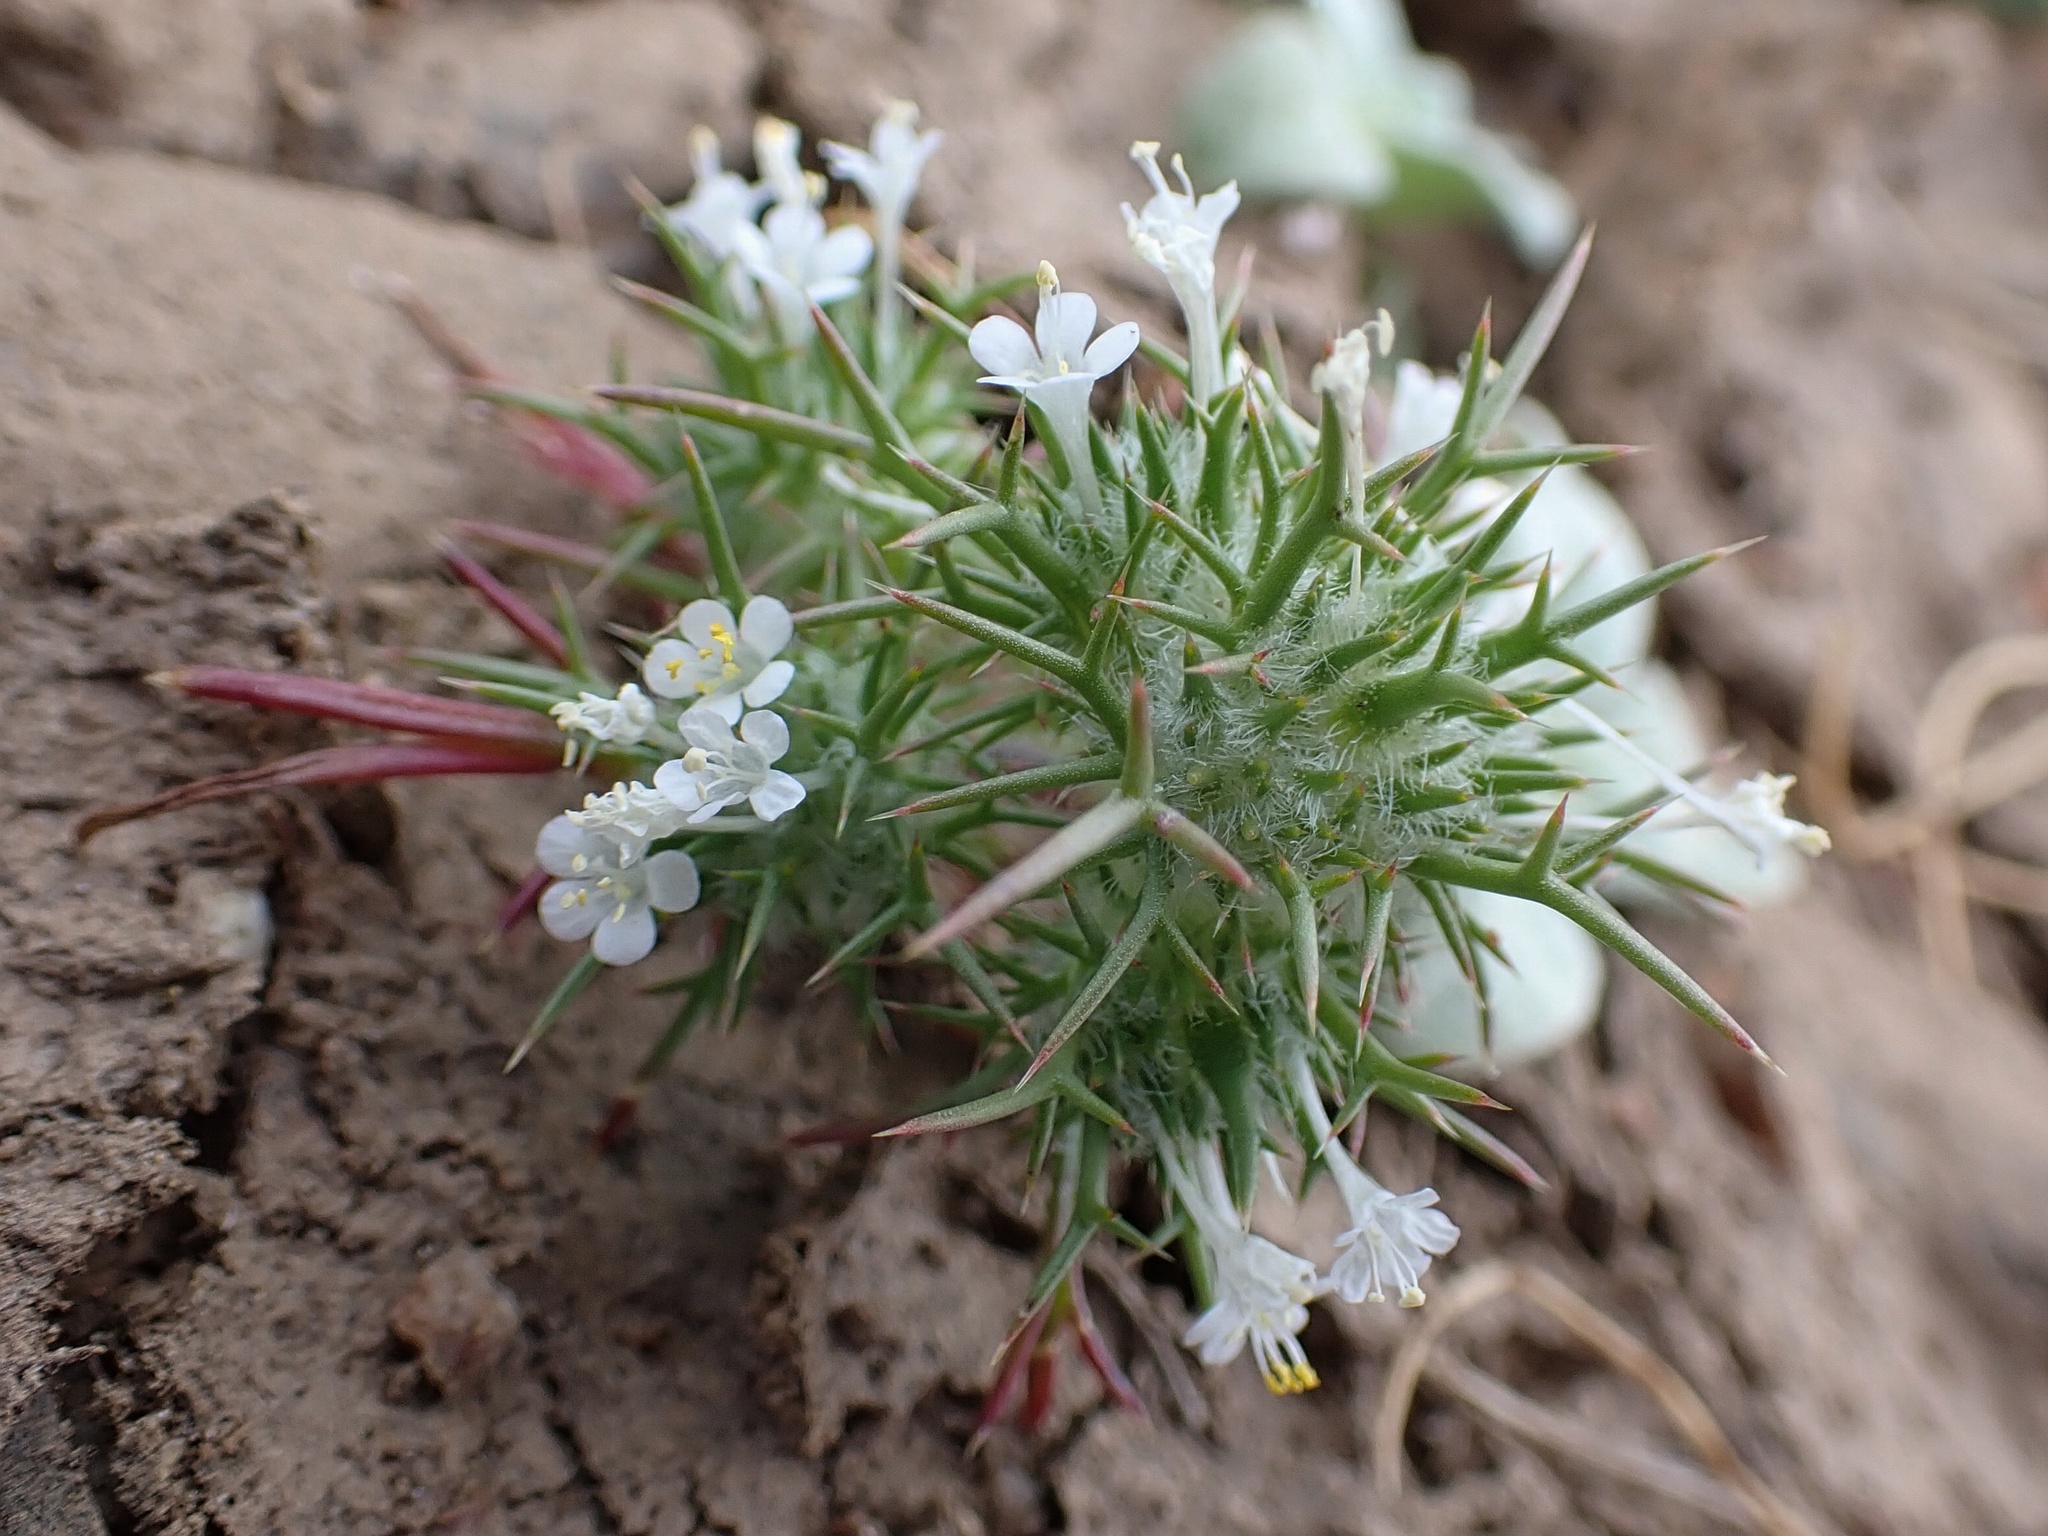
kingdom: Plantae
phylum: Tracheophyta
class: Magnoliopsida
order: Ericales
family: Polemoniaceae
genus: Navarretia
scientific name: Navarretia intertexta
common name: Needle-leaved navarretia
